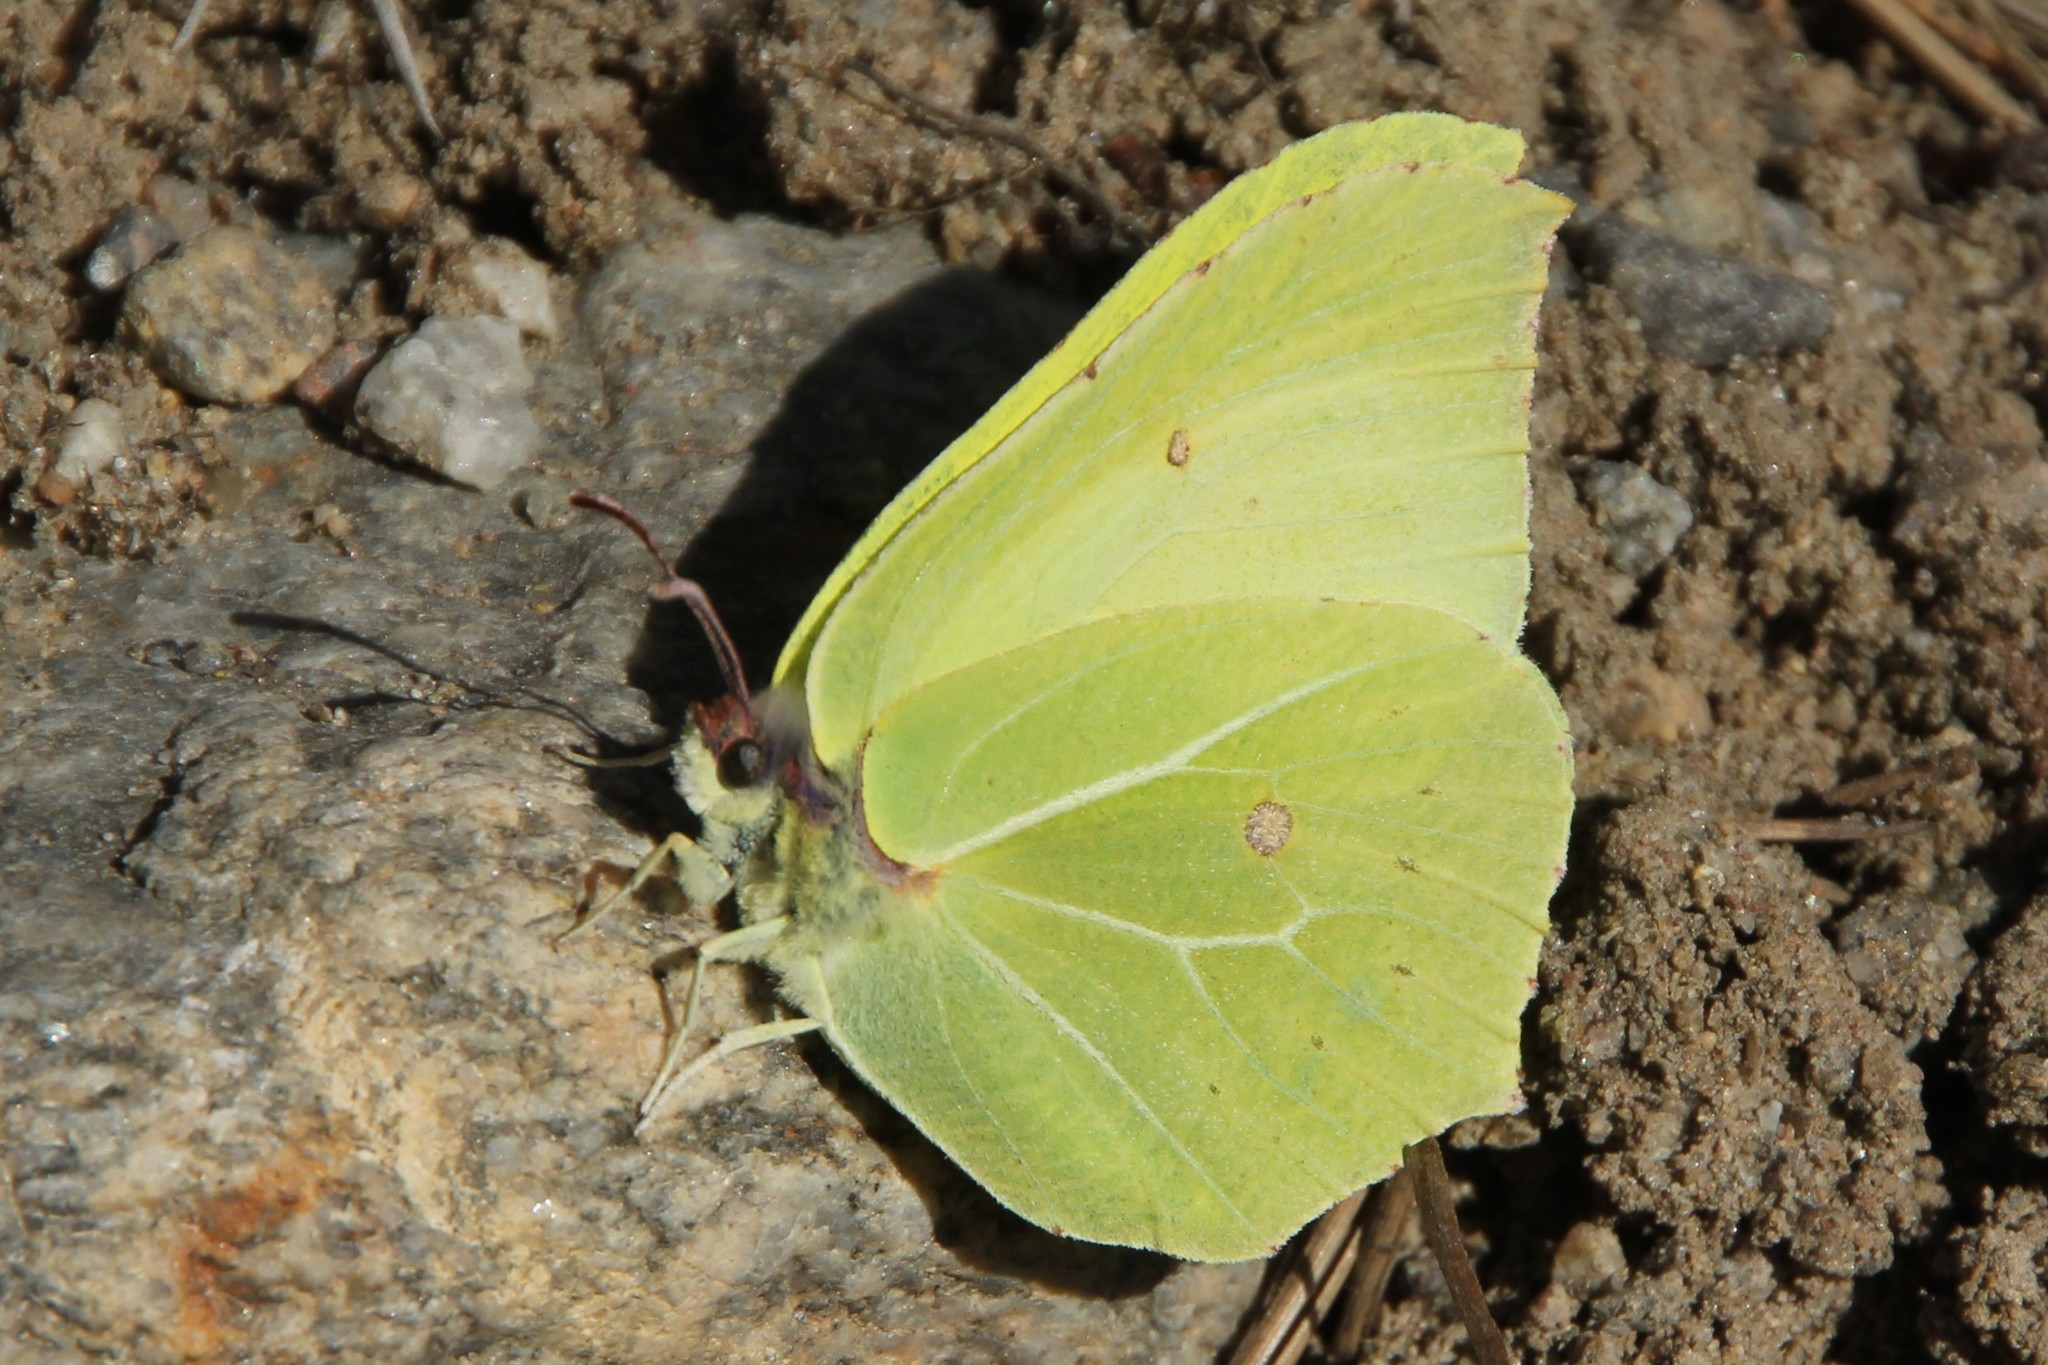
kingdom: Animalia
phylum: Arthropoda
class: Insecta
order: Lepidoptera
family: Pieridae
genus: Gonepteryx
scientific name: Gonepteryx rhamni
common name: Brimstone
